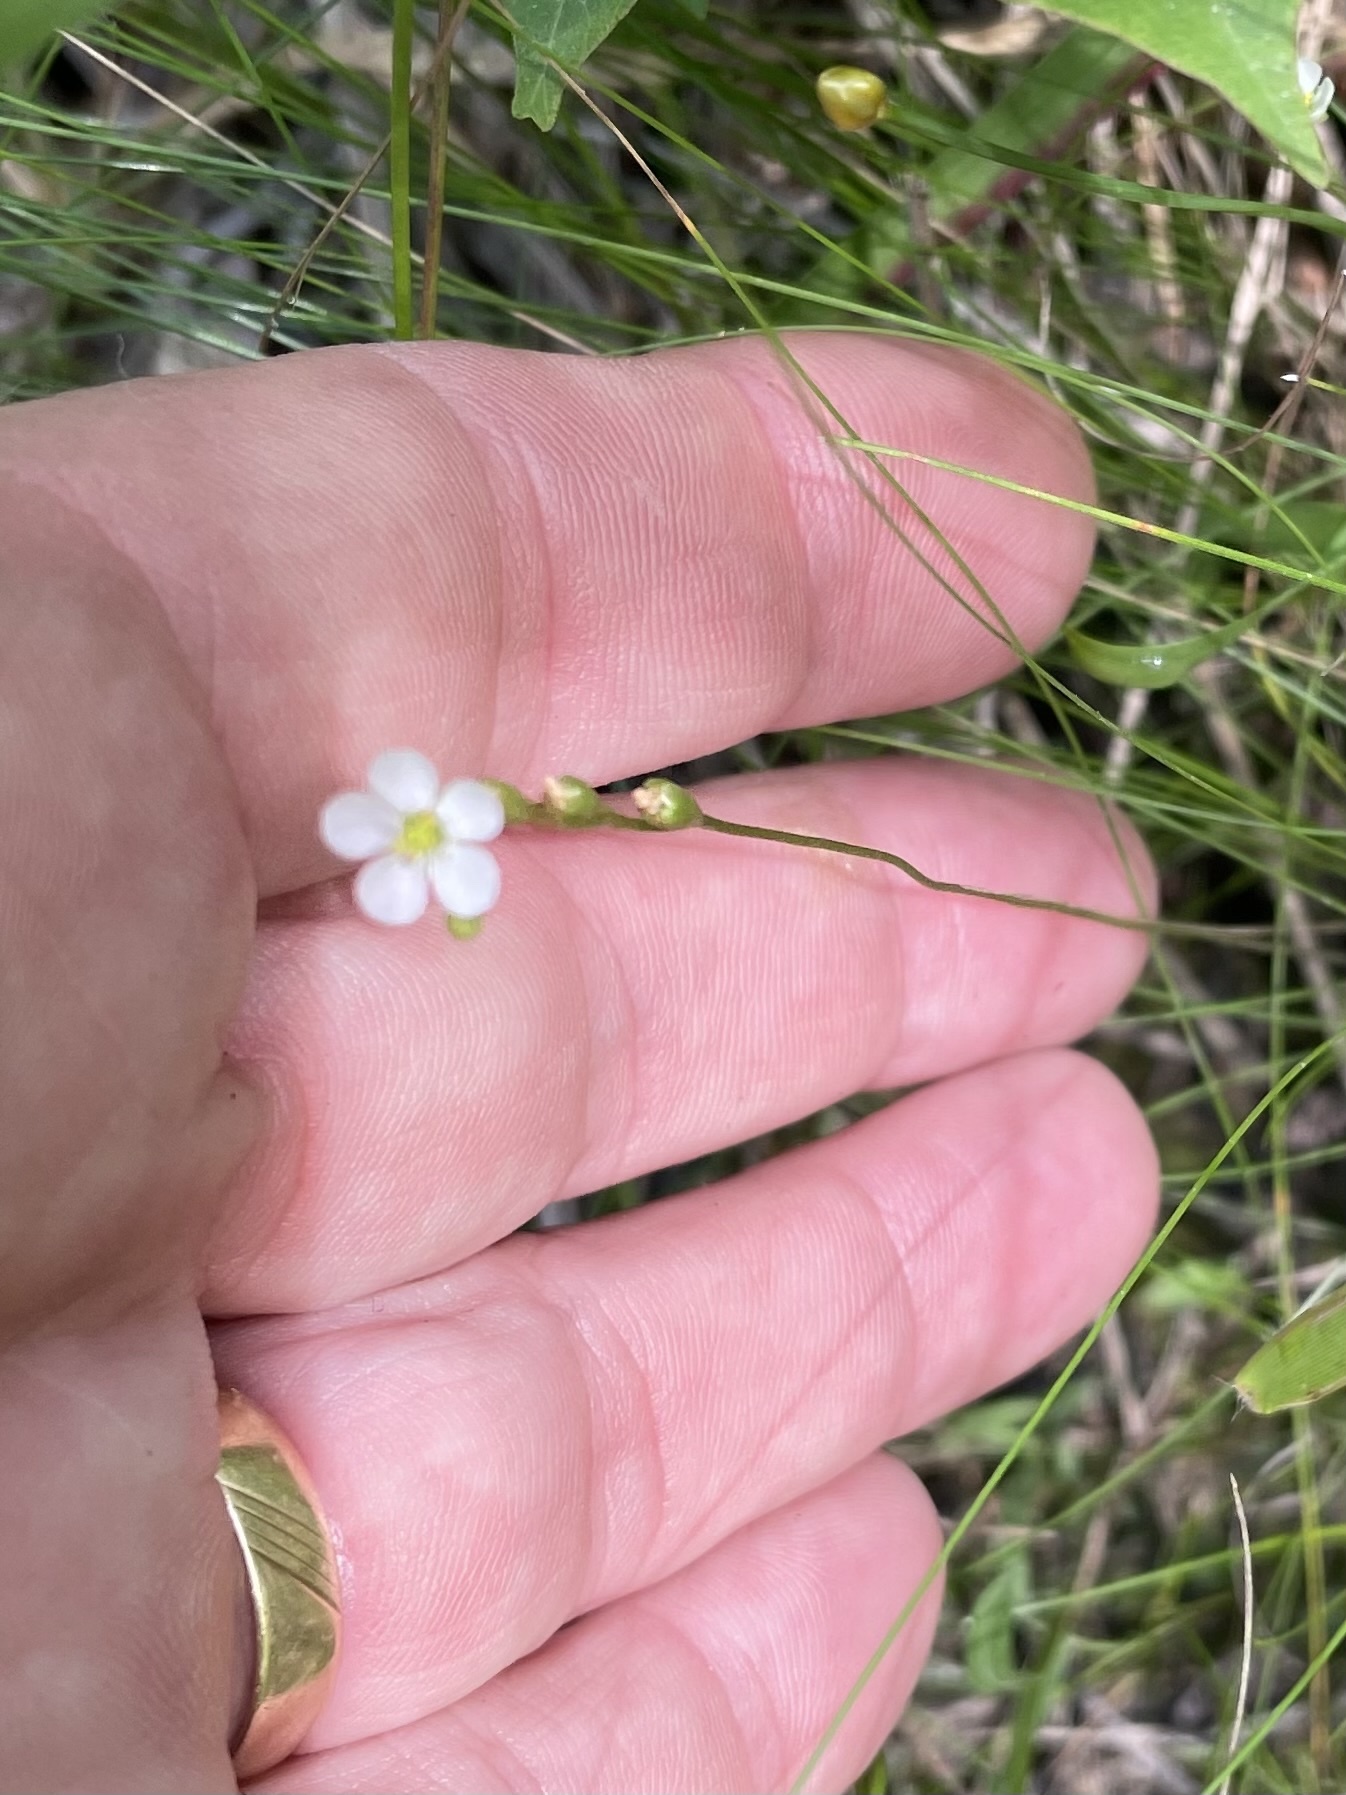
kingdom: Plantae
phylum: Tracheophyta
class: Magnoliopsida
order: Caryophyllales
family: Droseraceae
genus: Drosera
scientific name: Drosera capillaris
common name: Pink sundew
